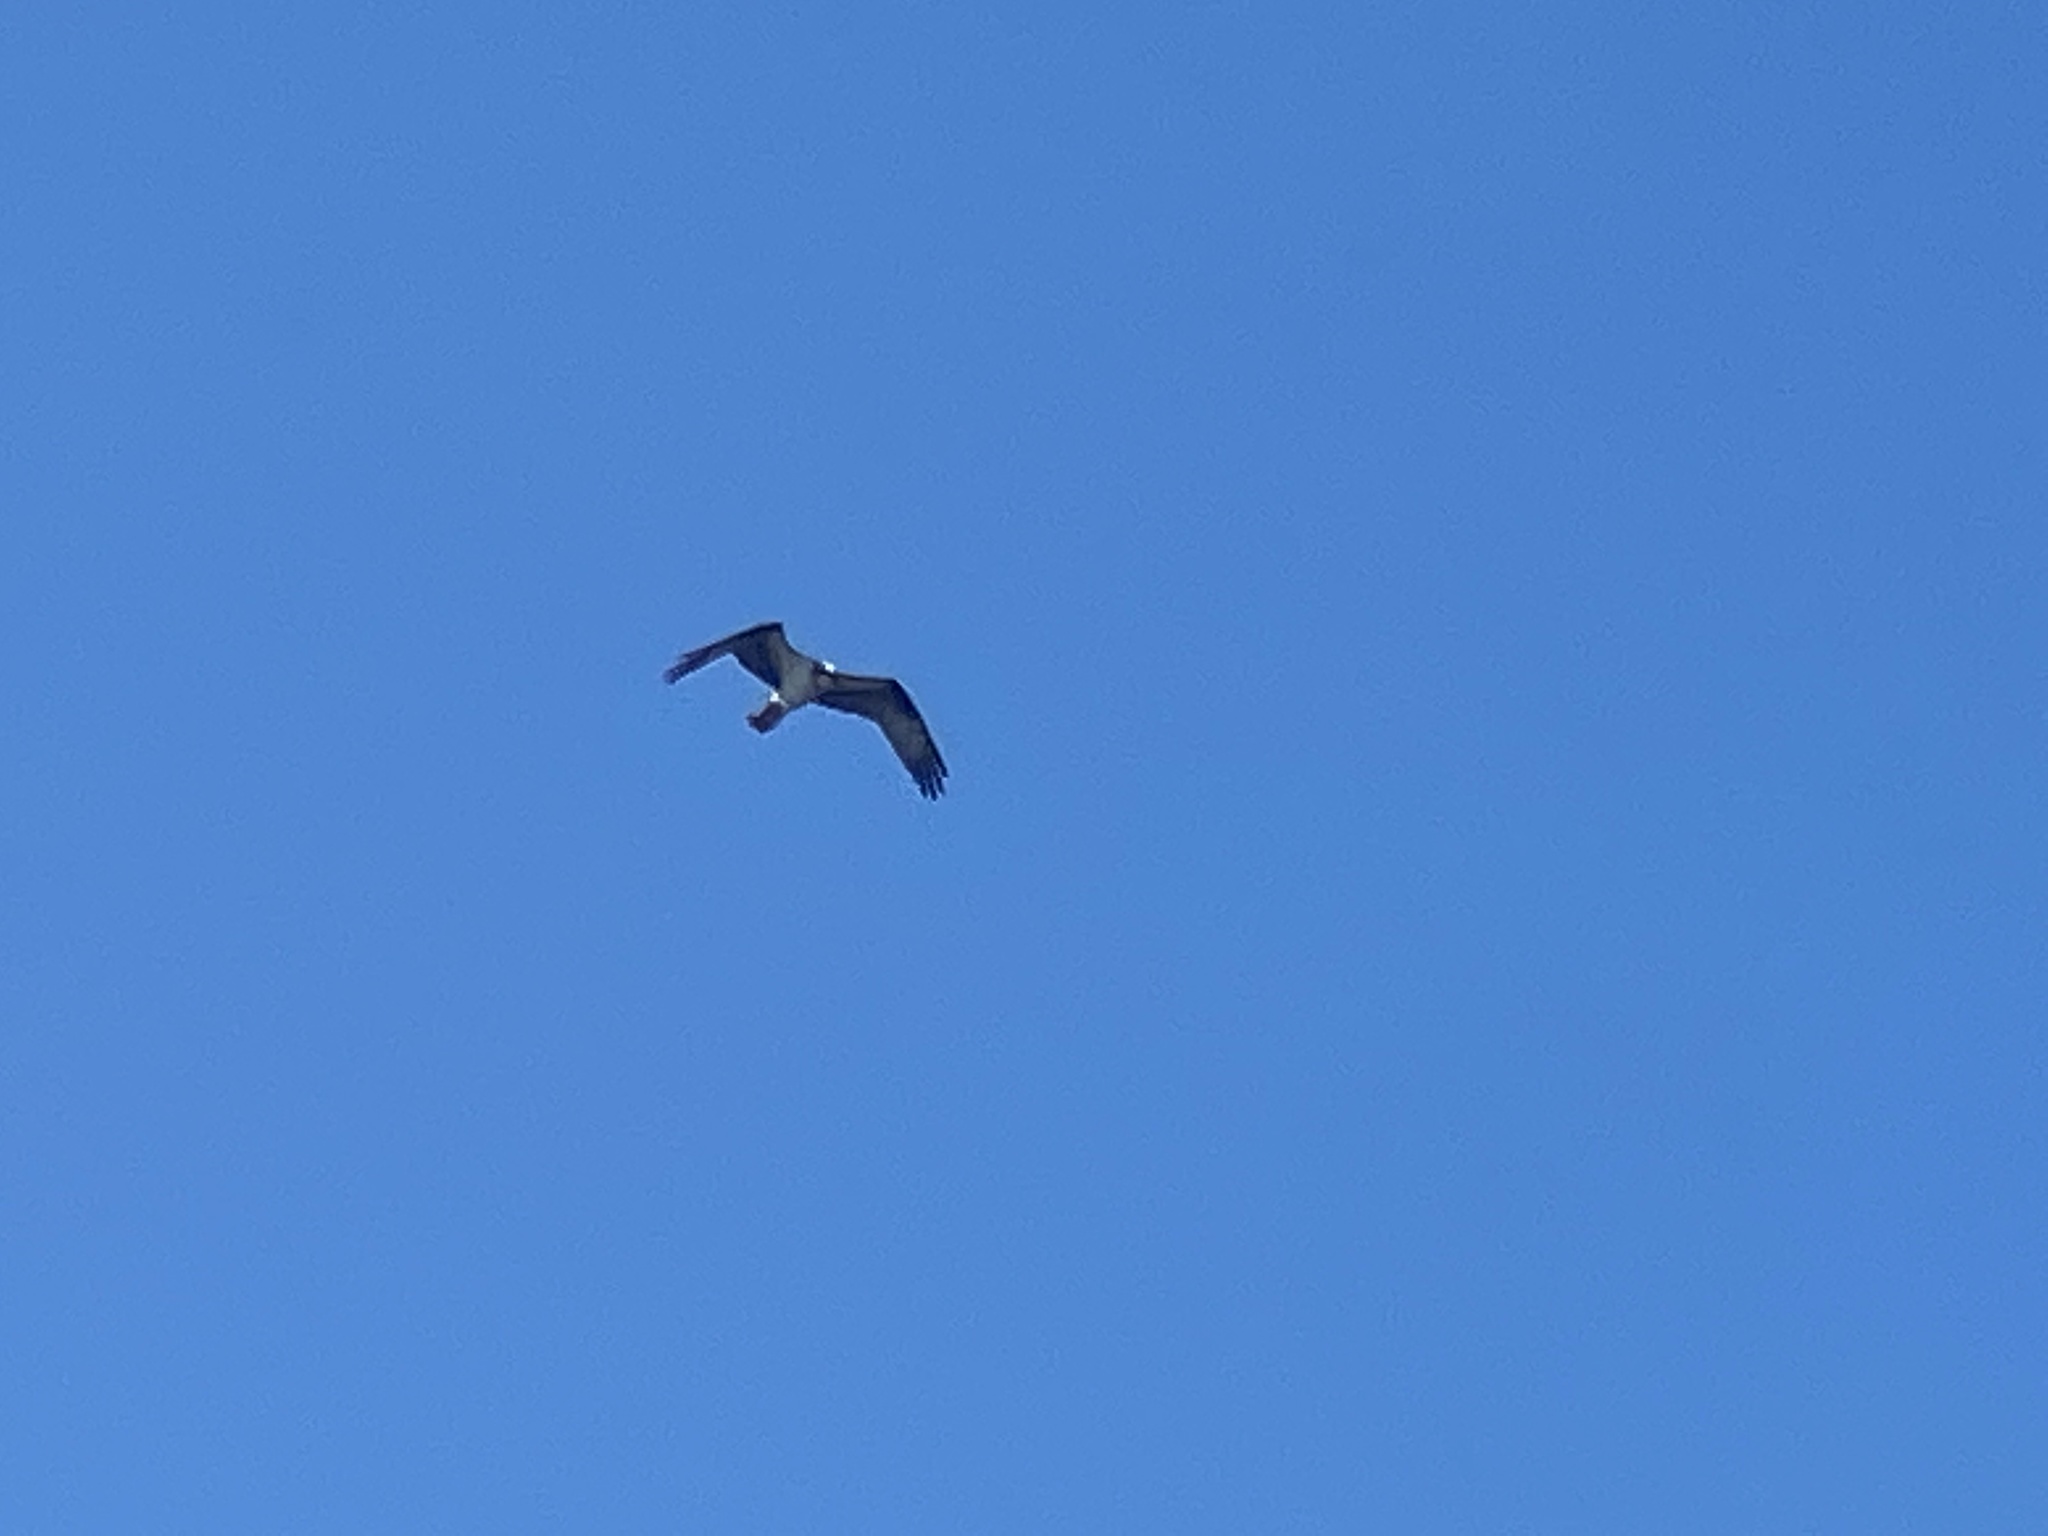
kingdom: Animalia
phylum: Chordata
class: Aves
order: Accipitriformes
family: Pandionidae
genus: Pandion
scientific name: Pandion haliaetus
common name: Osprey
